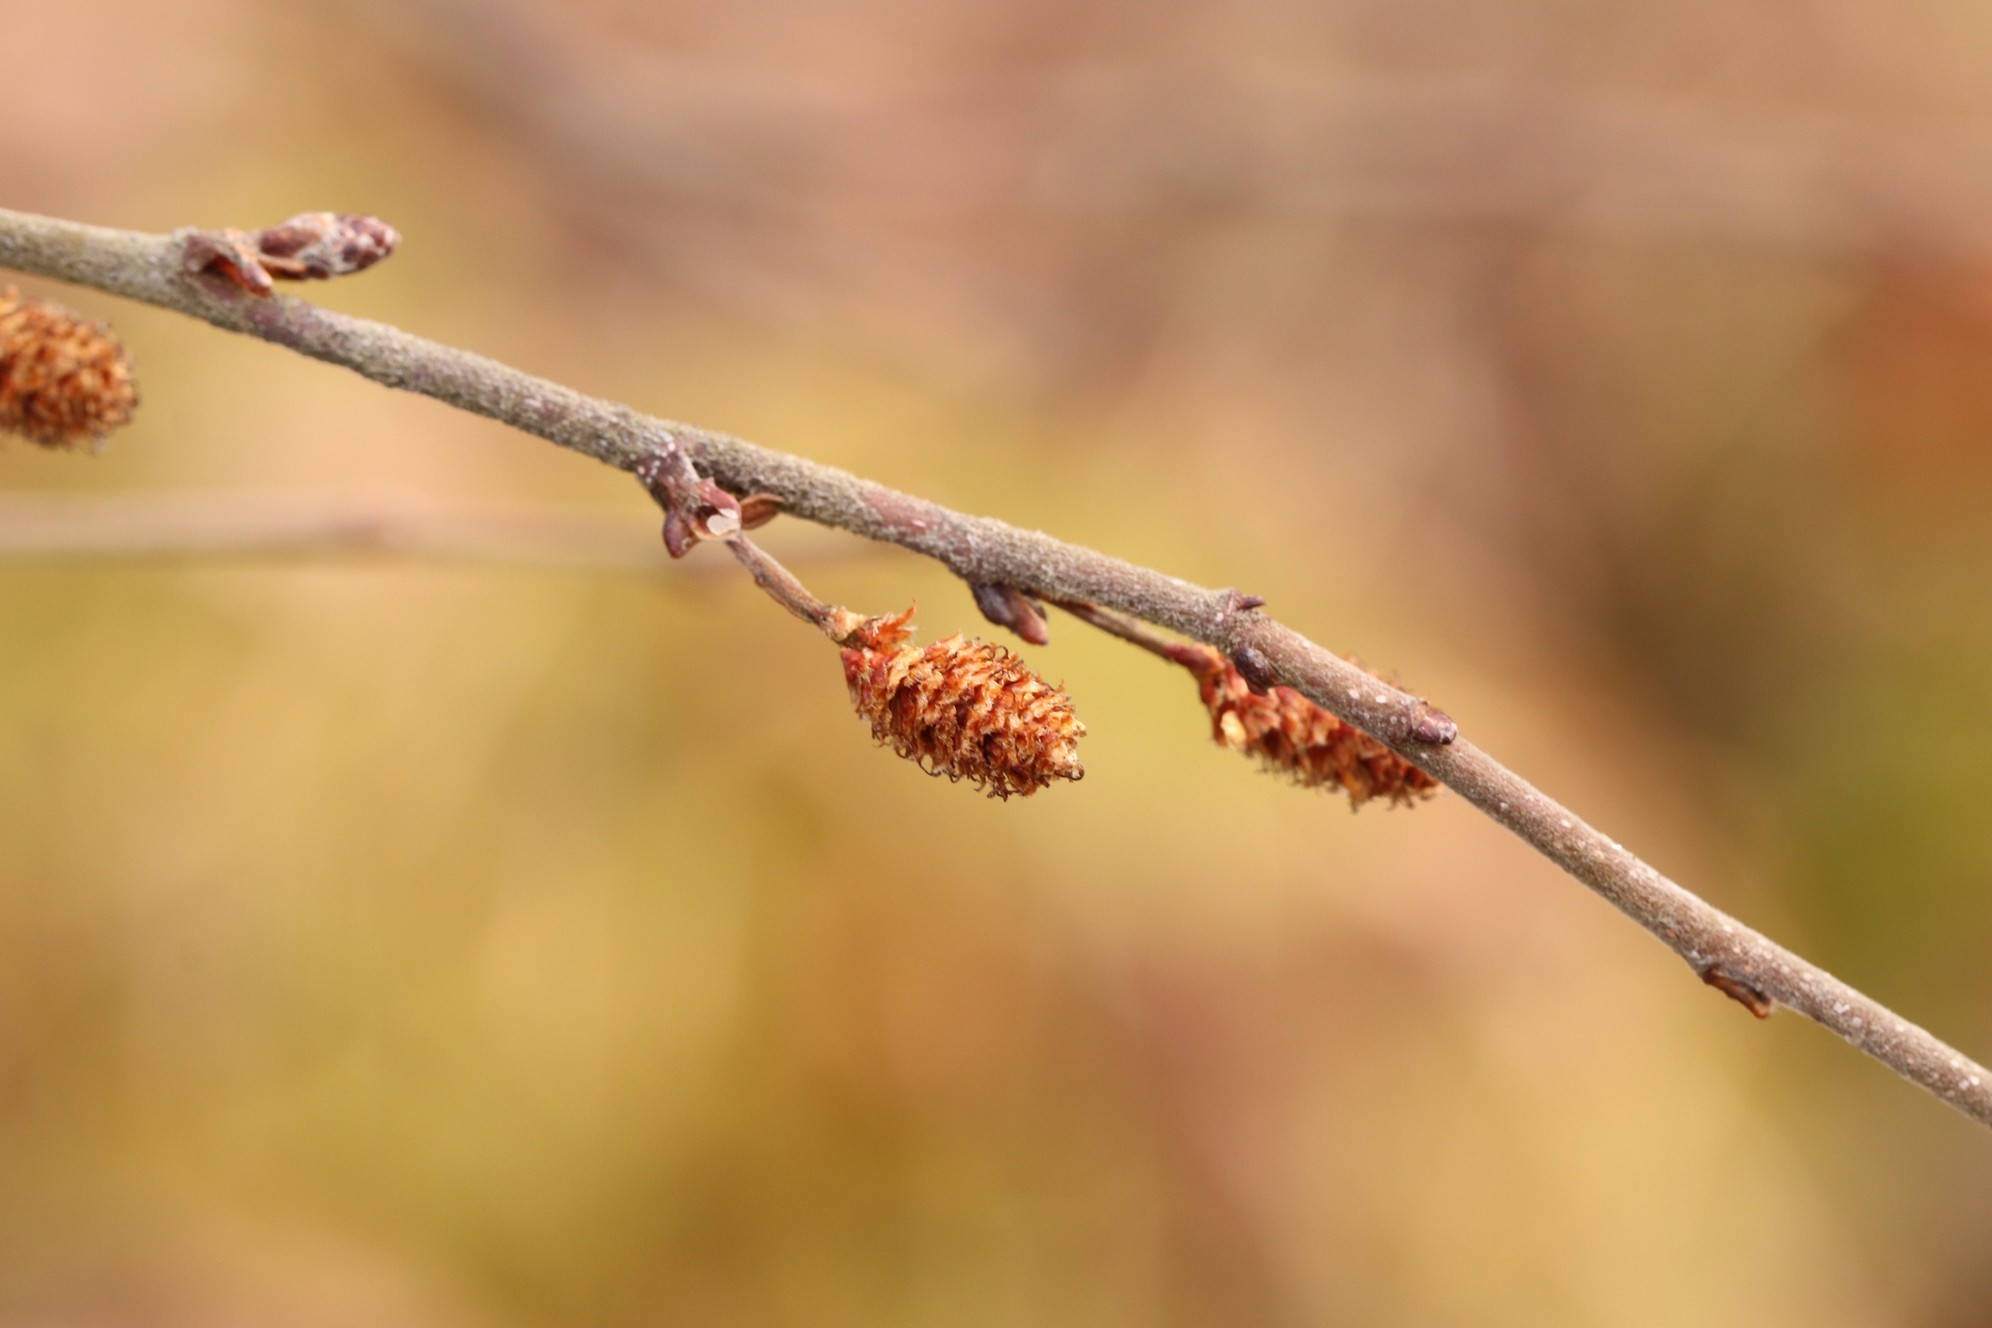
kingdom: Plantae
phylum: Tracheophyta
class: Magnoliopsida
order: Fagales
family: Betulaceae
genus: Betula
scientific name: Betula nana
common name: Arctic dwarf birch
